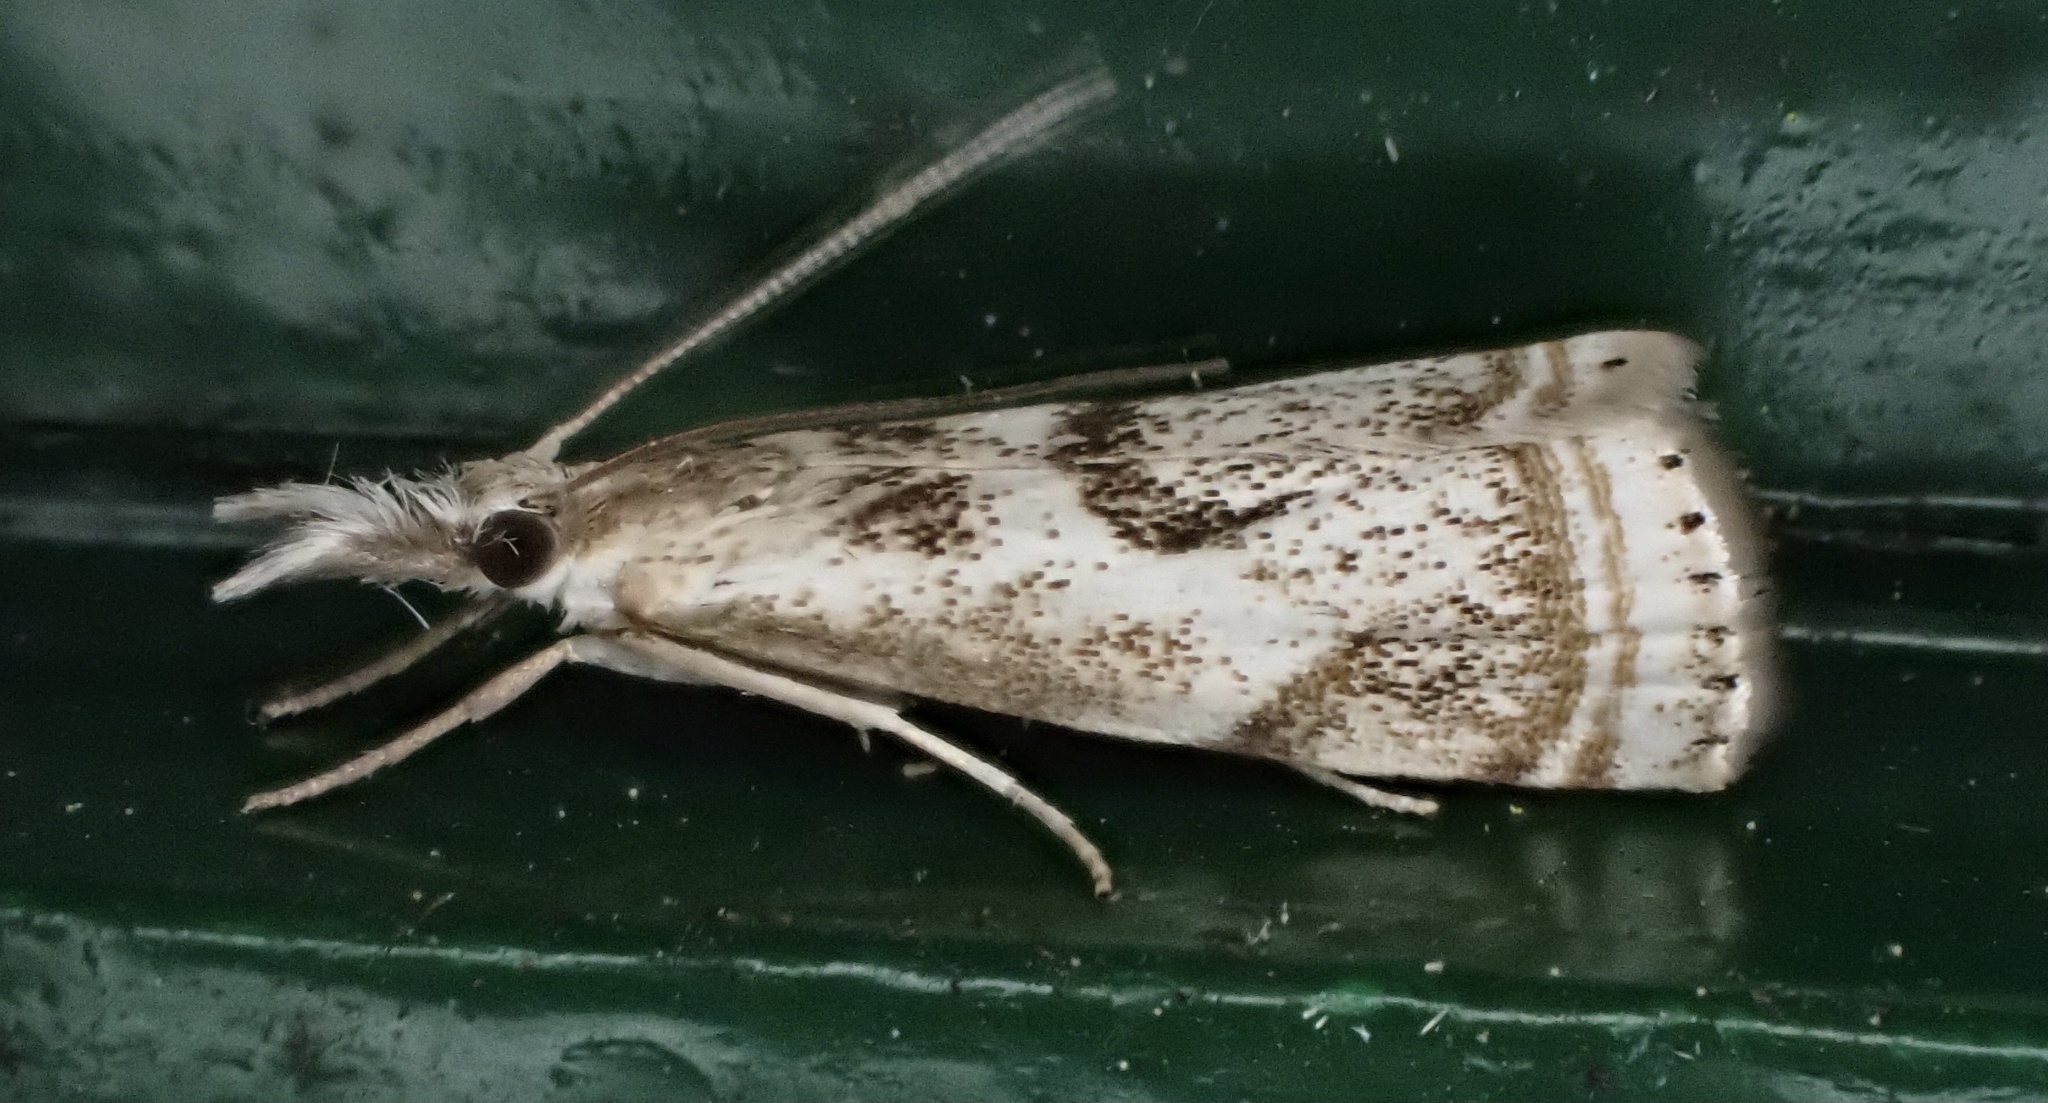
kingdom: Animalia
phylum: Arthropoda
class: Insecta
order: Lepidoptera
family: Crambidae
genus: Microcrambus
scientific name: Microcrambus elegans
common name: Elegant grass-veneer
